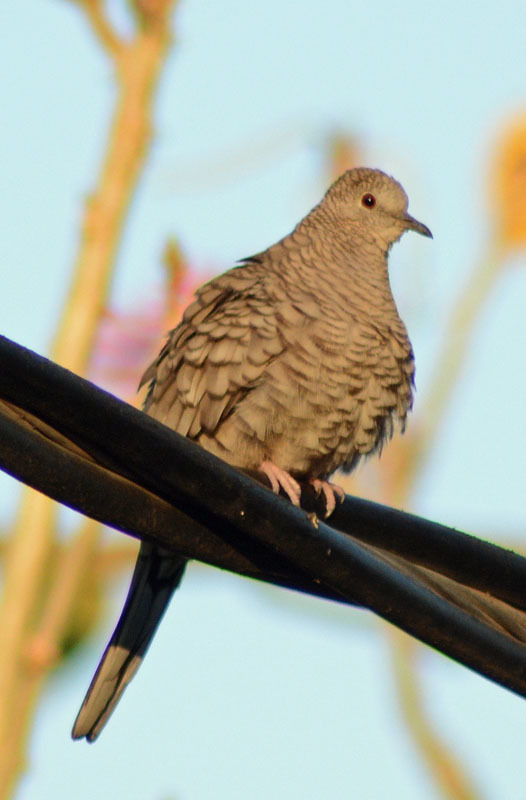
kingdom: Animalia
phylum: Chordata
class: Aves
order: Columbiformes
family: Columbidae
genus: Columbina
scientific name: Columbina inca
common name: Inca dove
